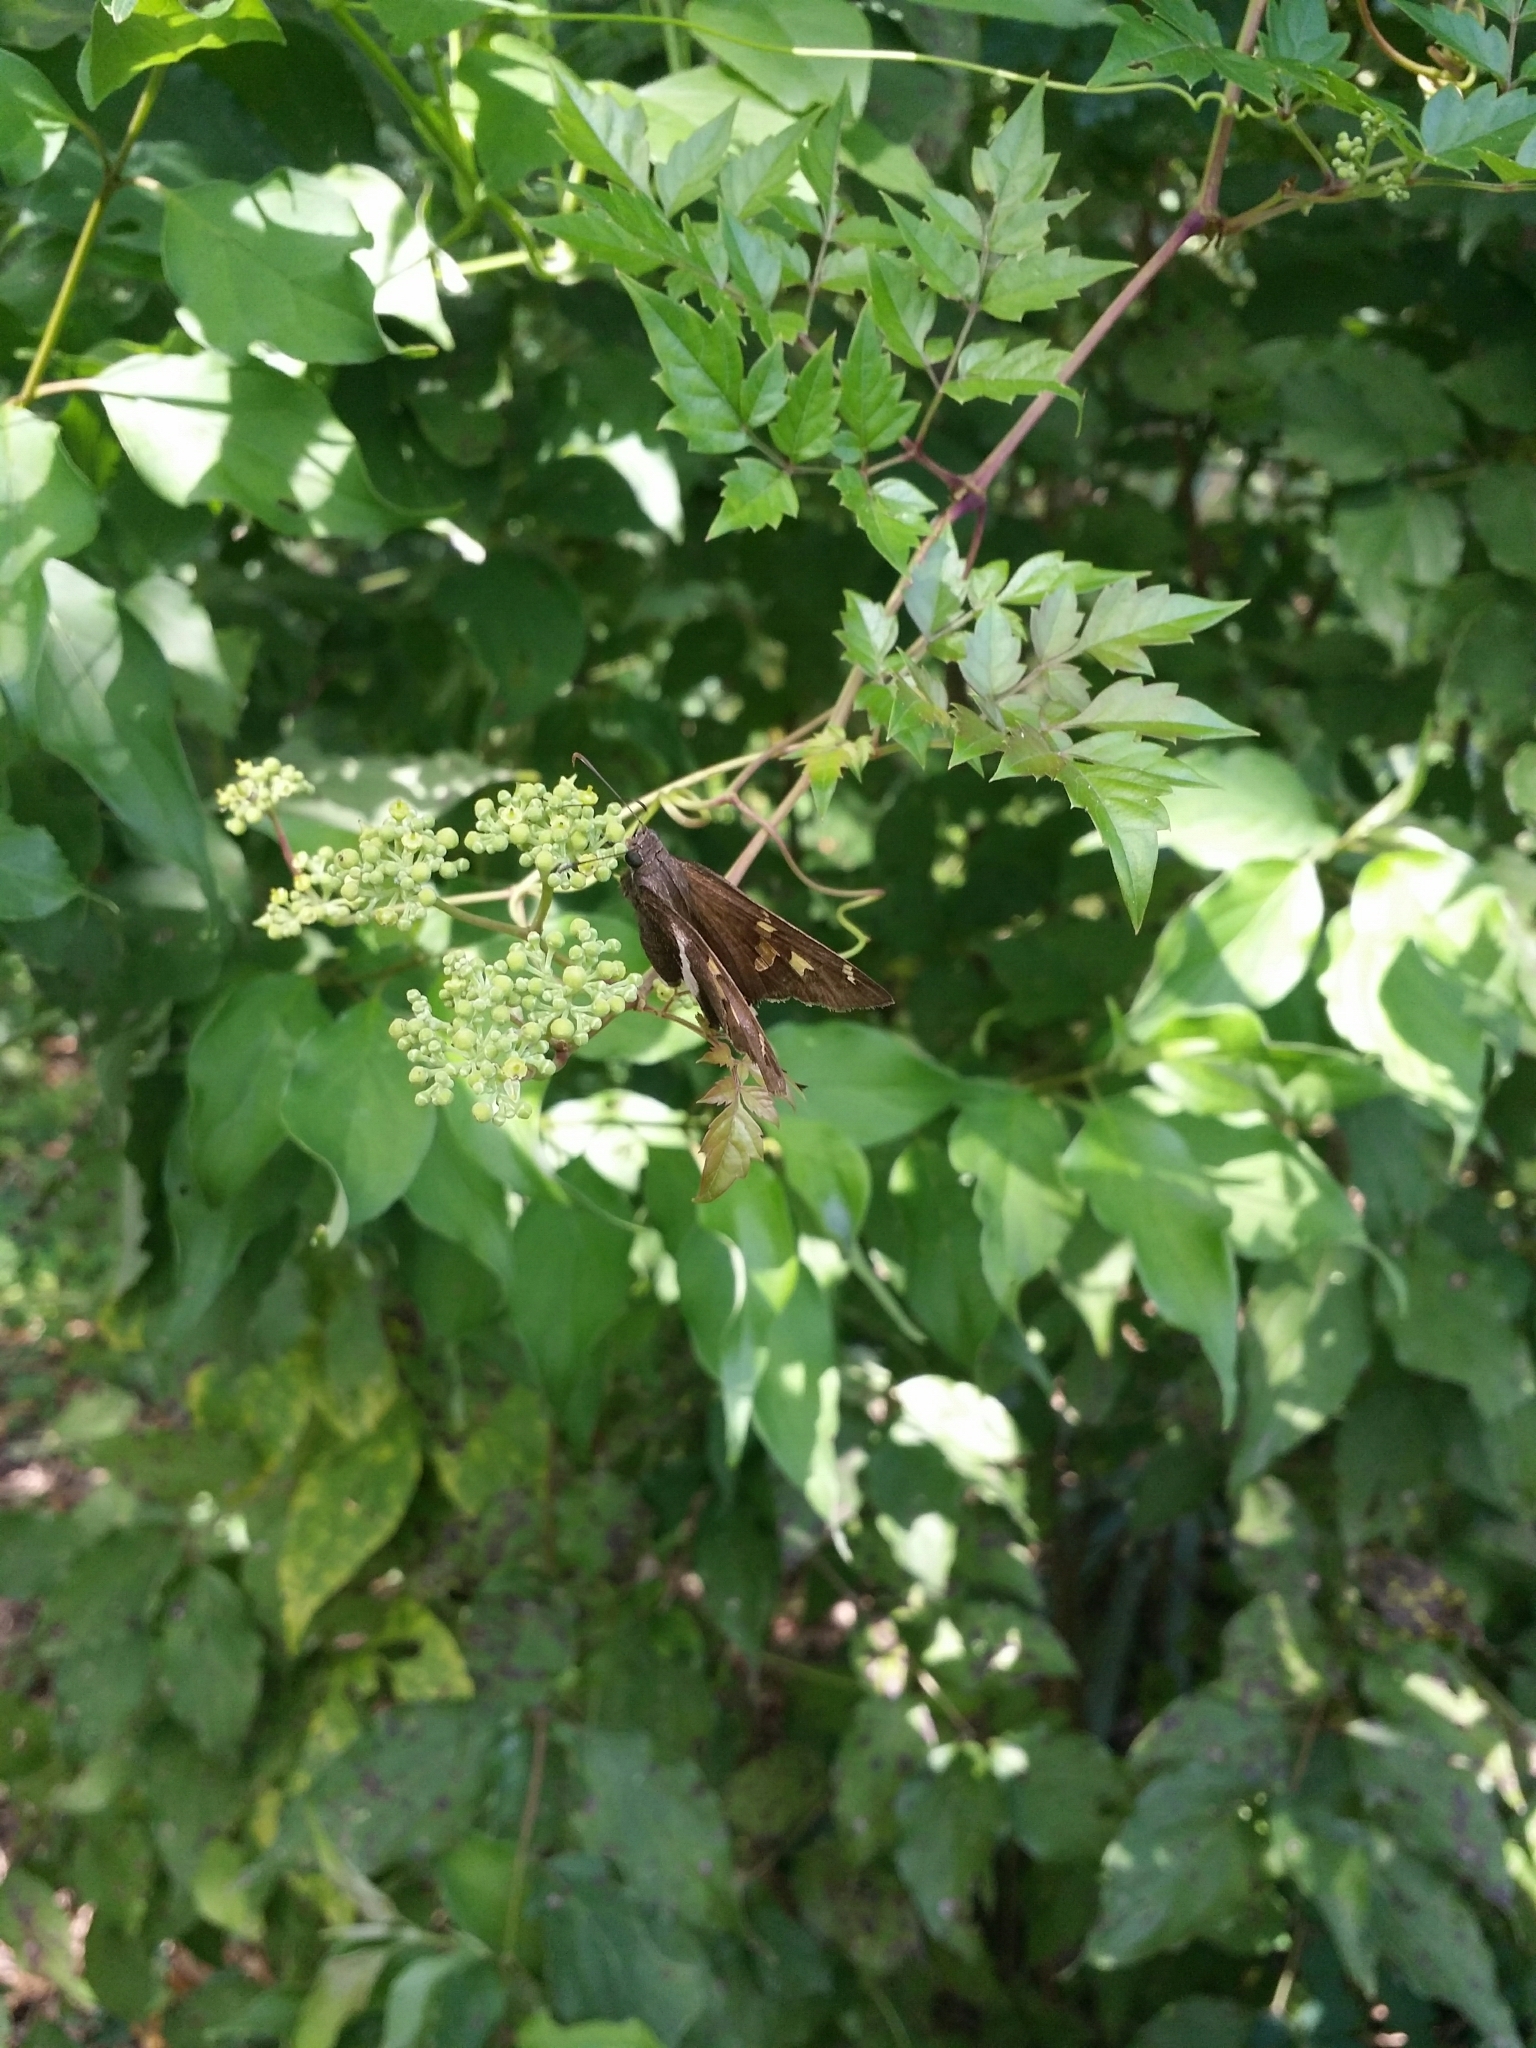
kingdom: Animalia
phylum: Arthropoda
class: Insecta
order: Lepidoptera
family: Hesperiidae
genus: Chioides
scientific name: Chioides catillus
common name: Silverbanded skipper
